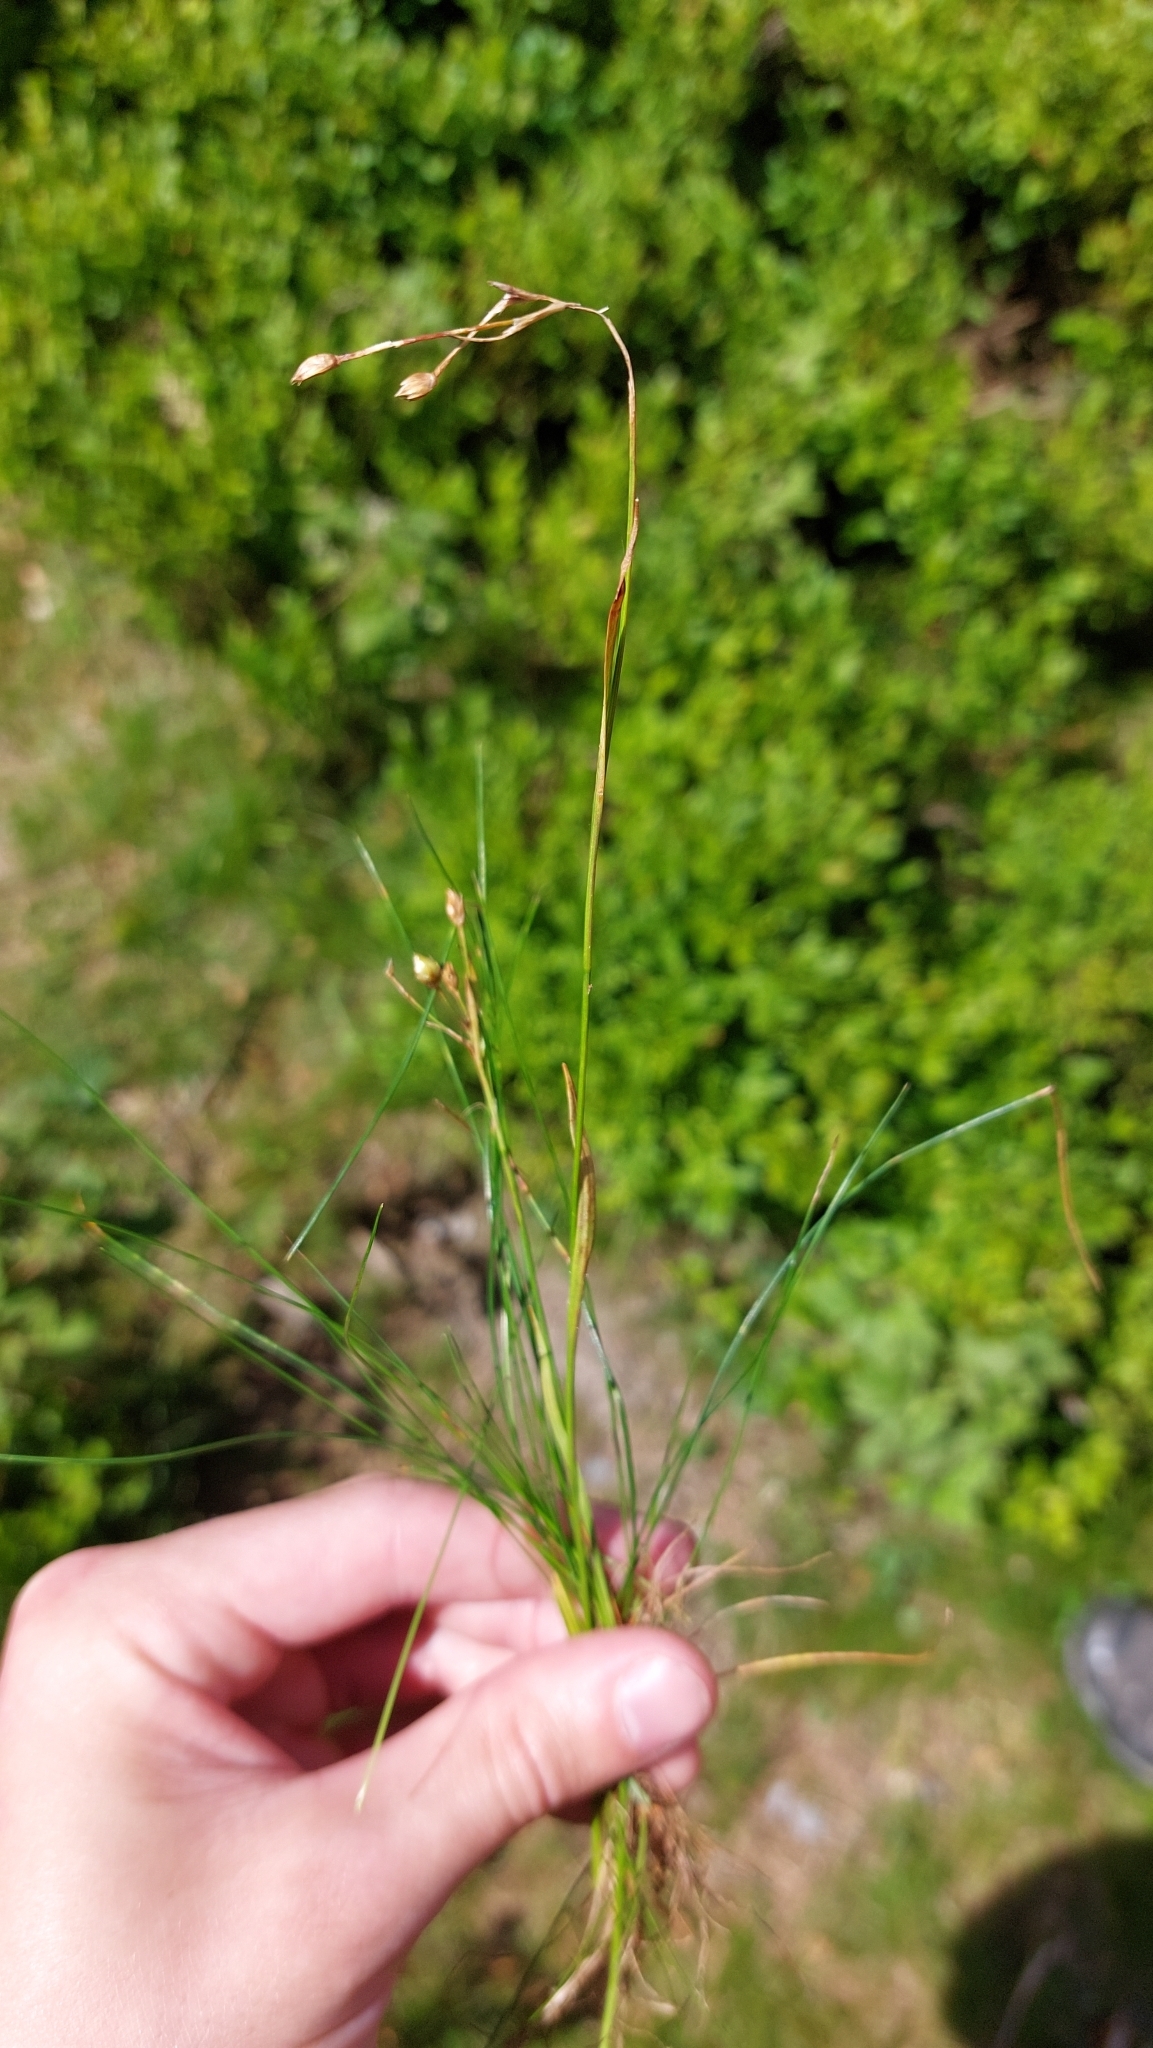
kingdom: Plantae
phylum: Tracheophyta
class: Liliopsida
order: Poales
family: Juncaceae
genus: Luzula
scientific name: Luzula luzulina
